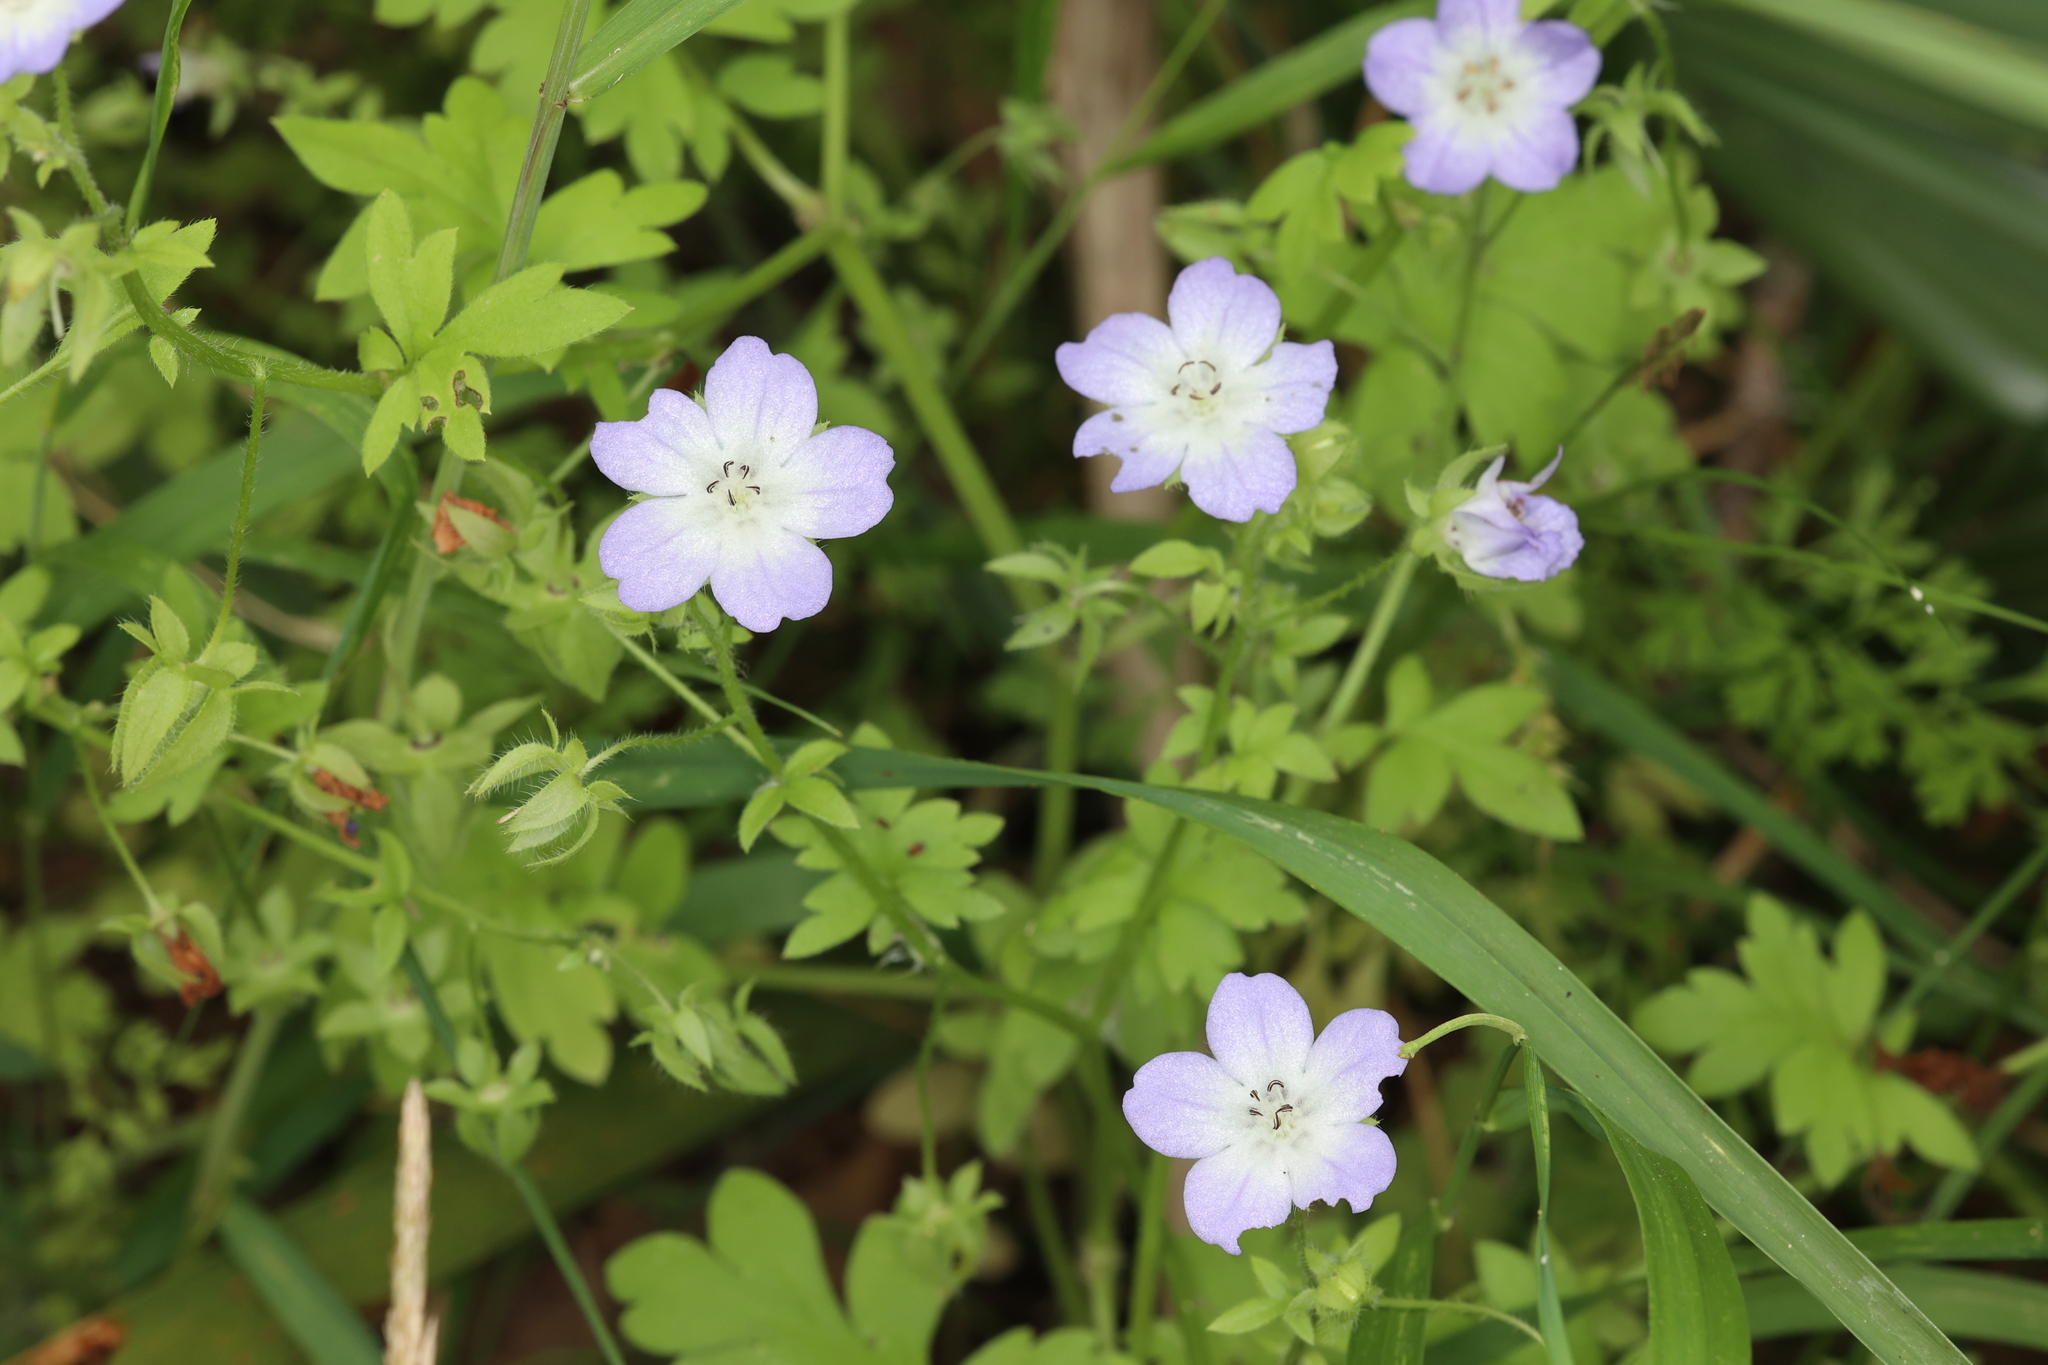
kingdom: Plantae
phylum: Tracheophyta
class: Magnoliopsida
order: Boraginales
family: Hydrophyllaceae
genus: Nemophila
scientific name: Nemophila phacelioides
